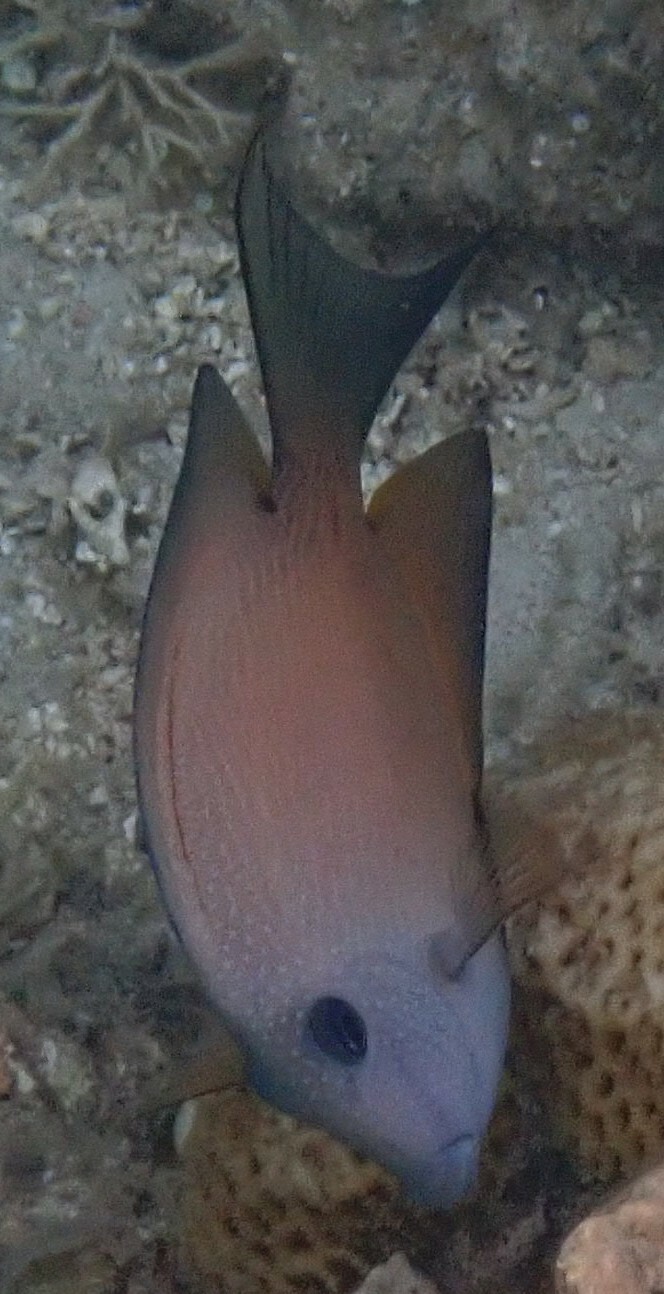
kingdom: Animalia
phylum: Chordata
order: Perciformes
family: Acanthuridae
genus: Ctenochaetus
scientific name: Ctenochaetus binotatus
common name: Two-spot bristletooth
